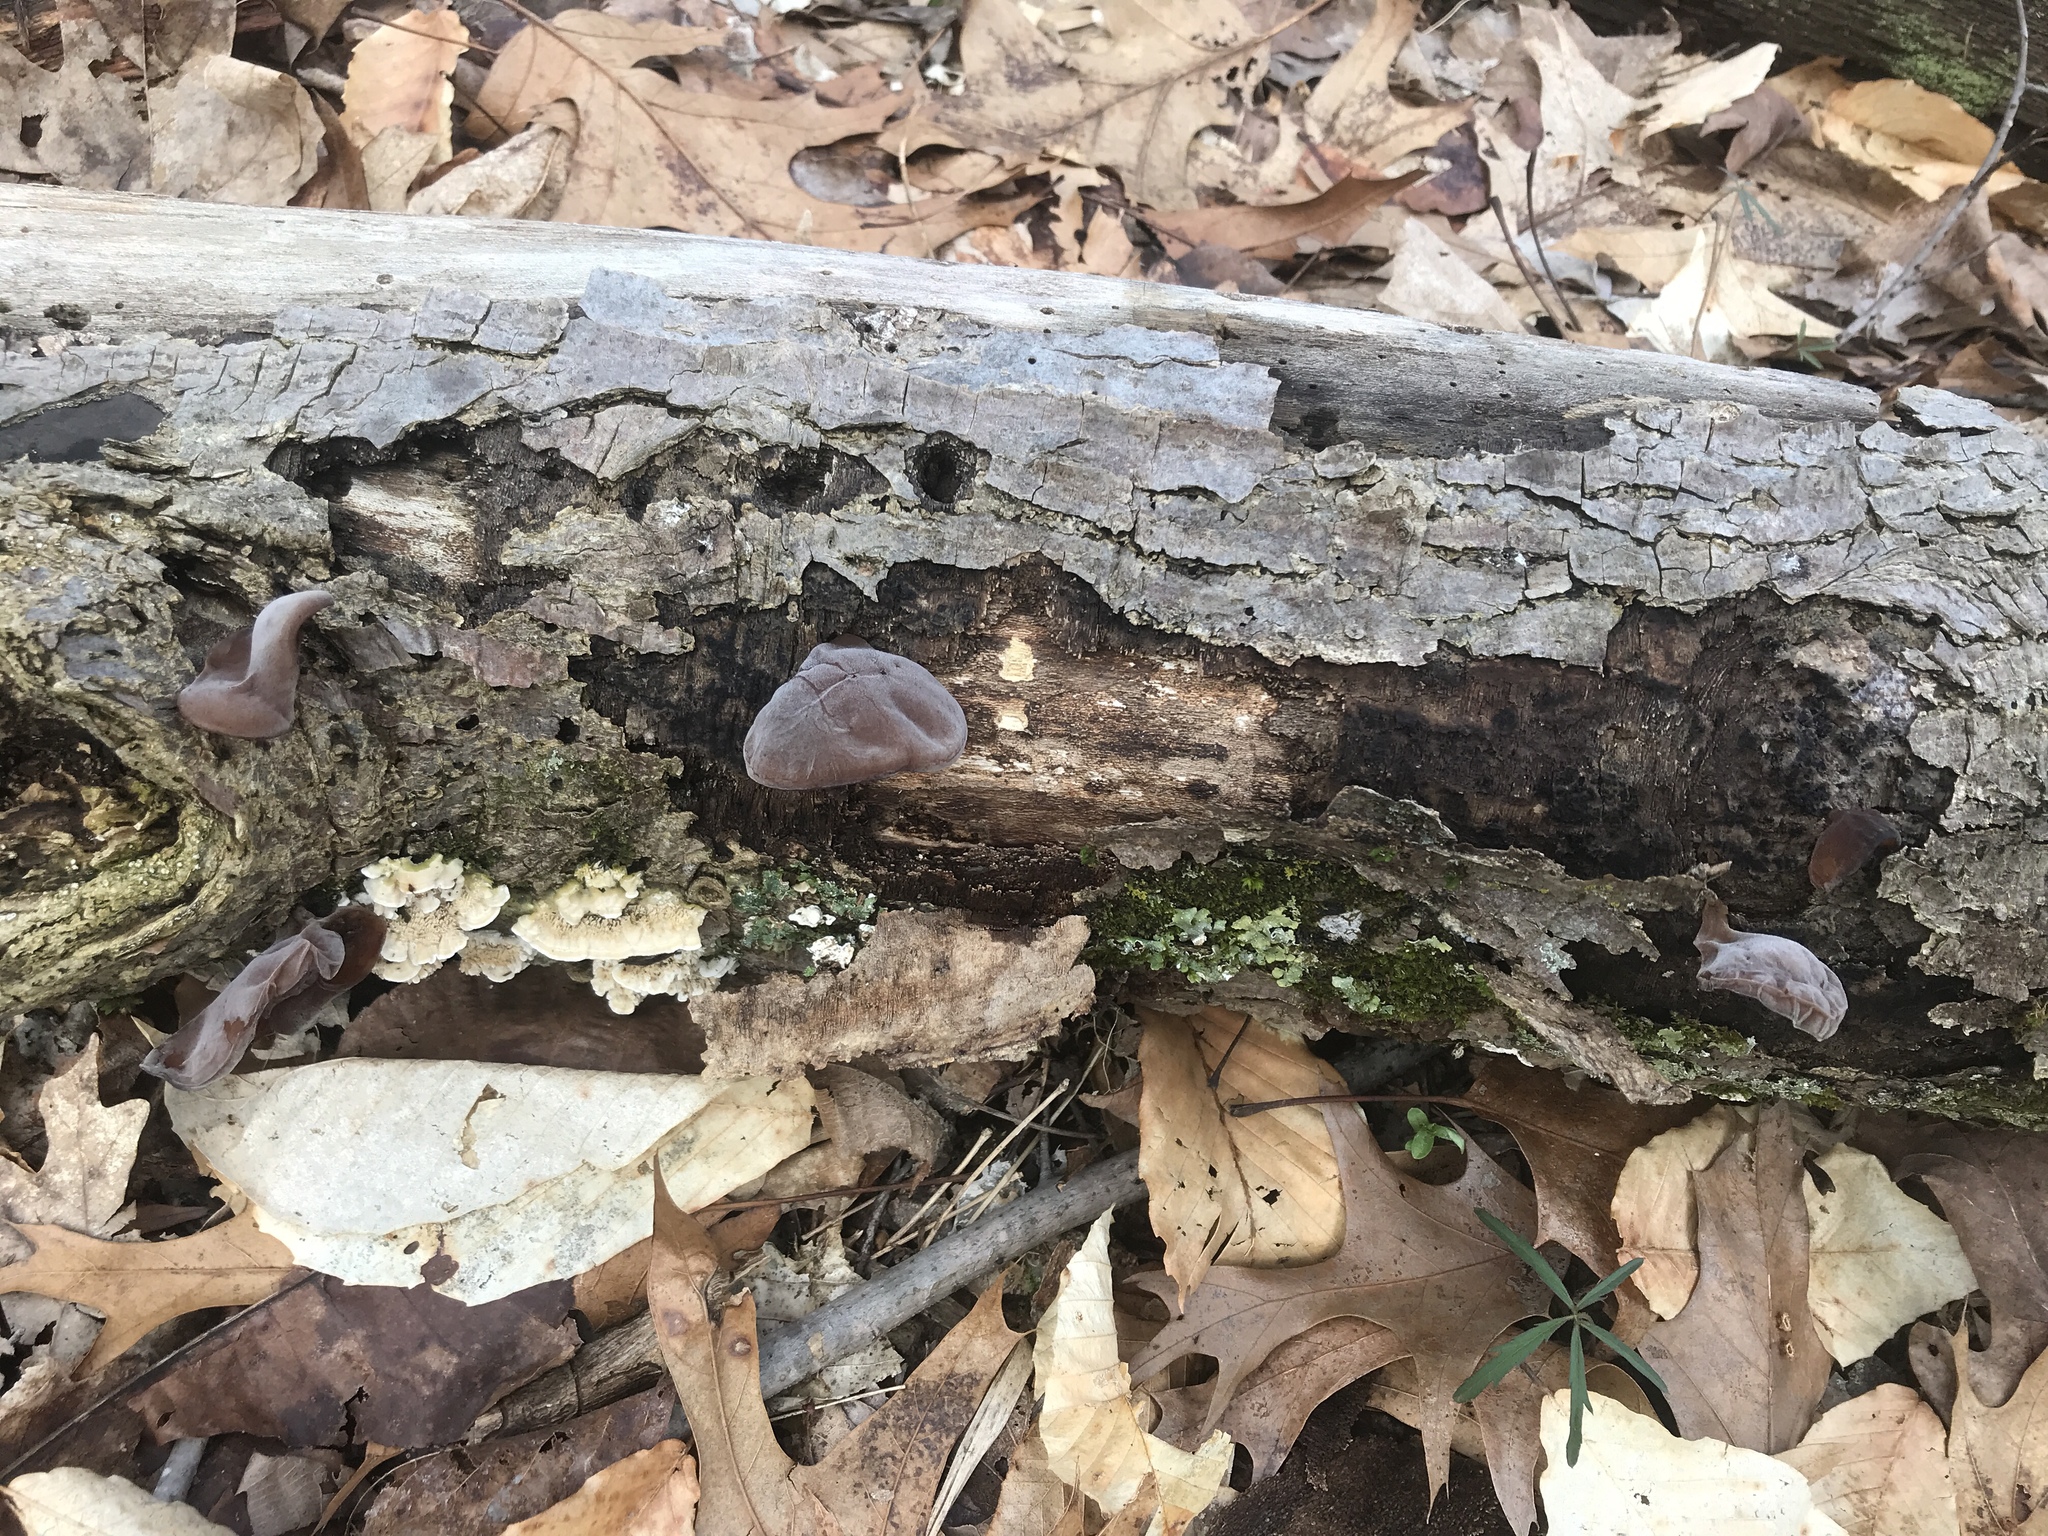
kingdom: Fungi
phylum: Basidiomycota
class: Agaricomycetes
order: Auriculariales
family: Auriculariaceae
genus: Auricularia
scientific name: Auricularia angiospermarum
